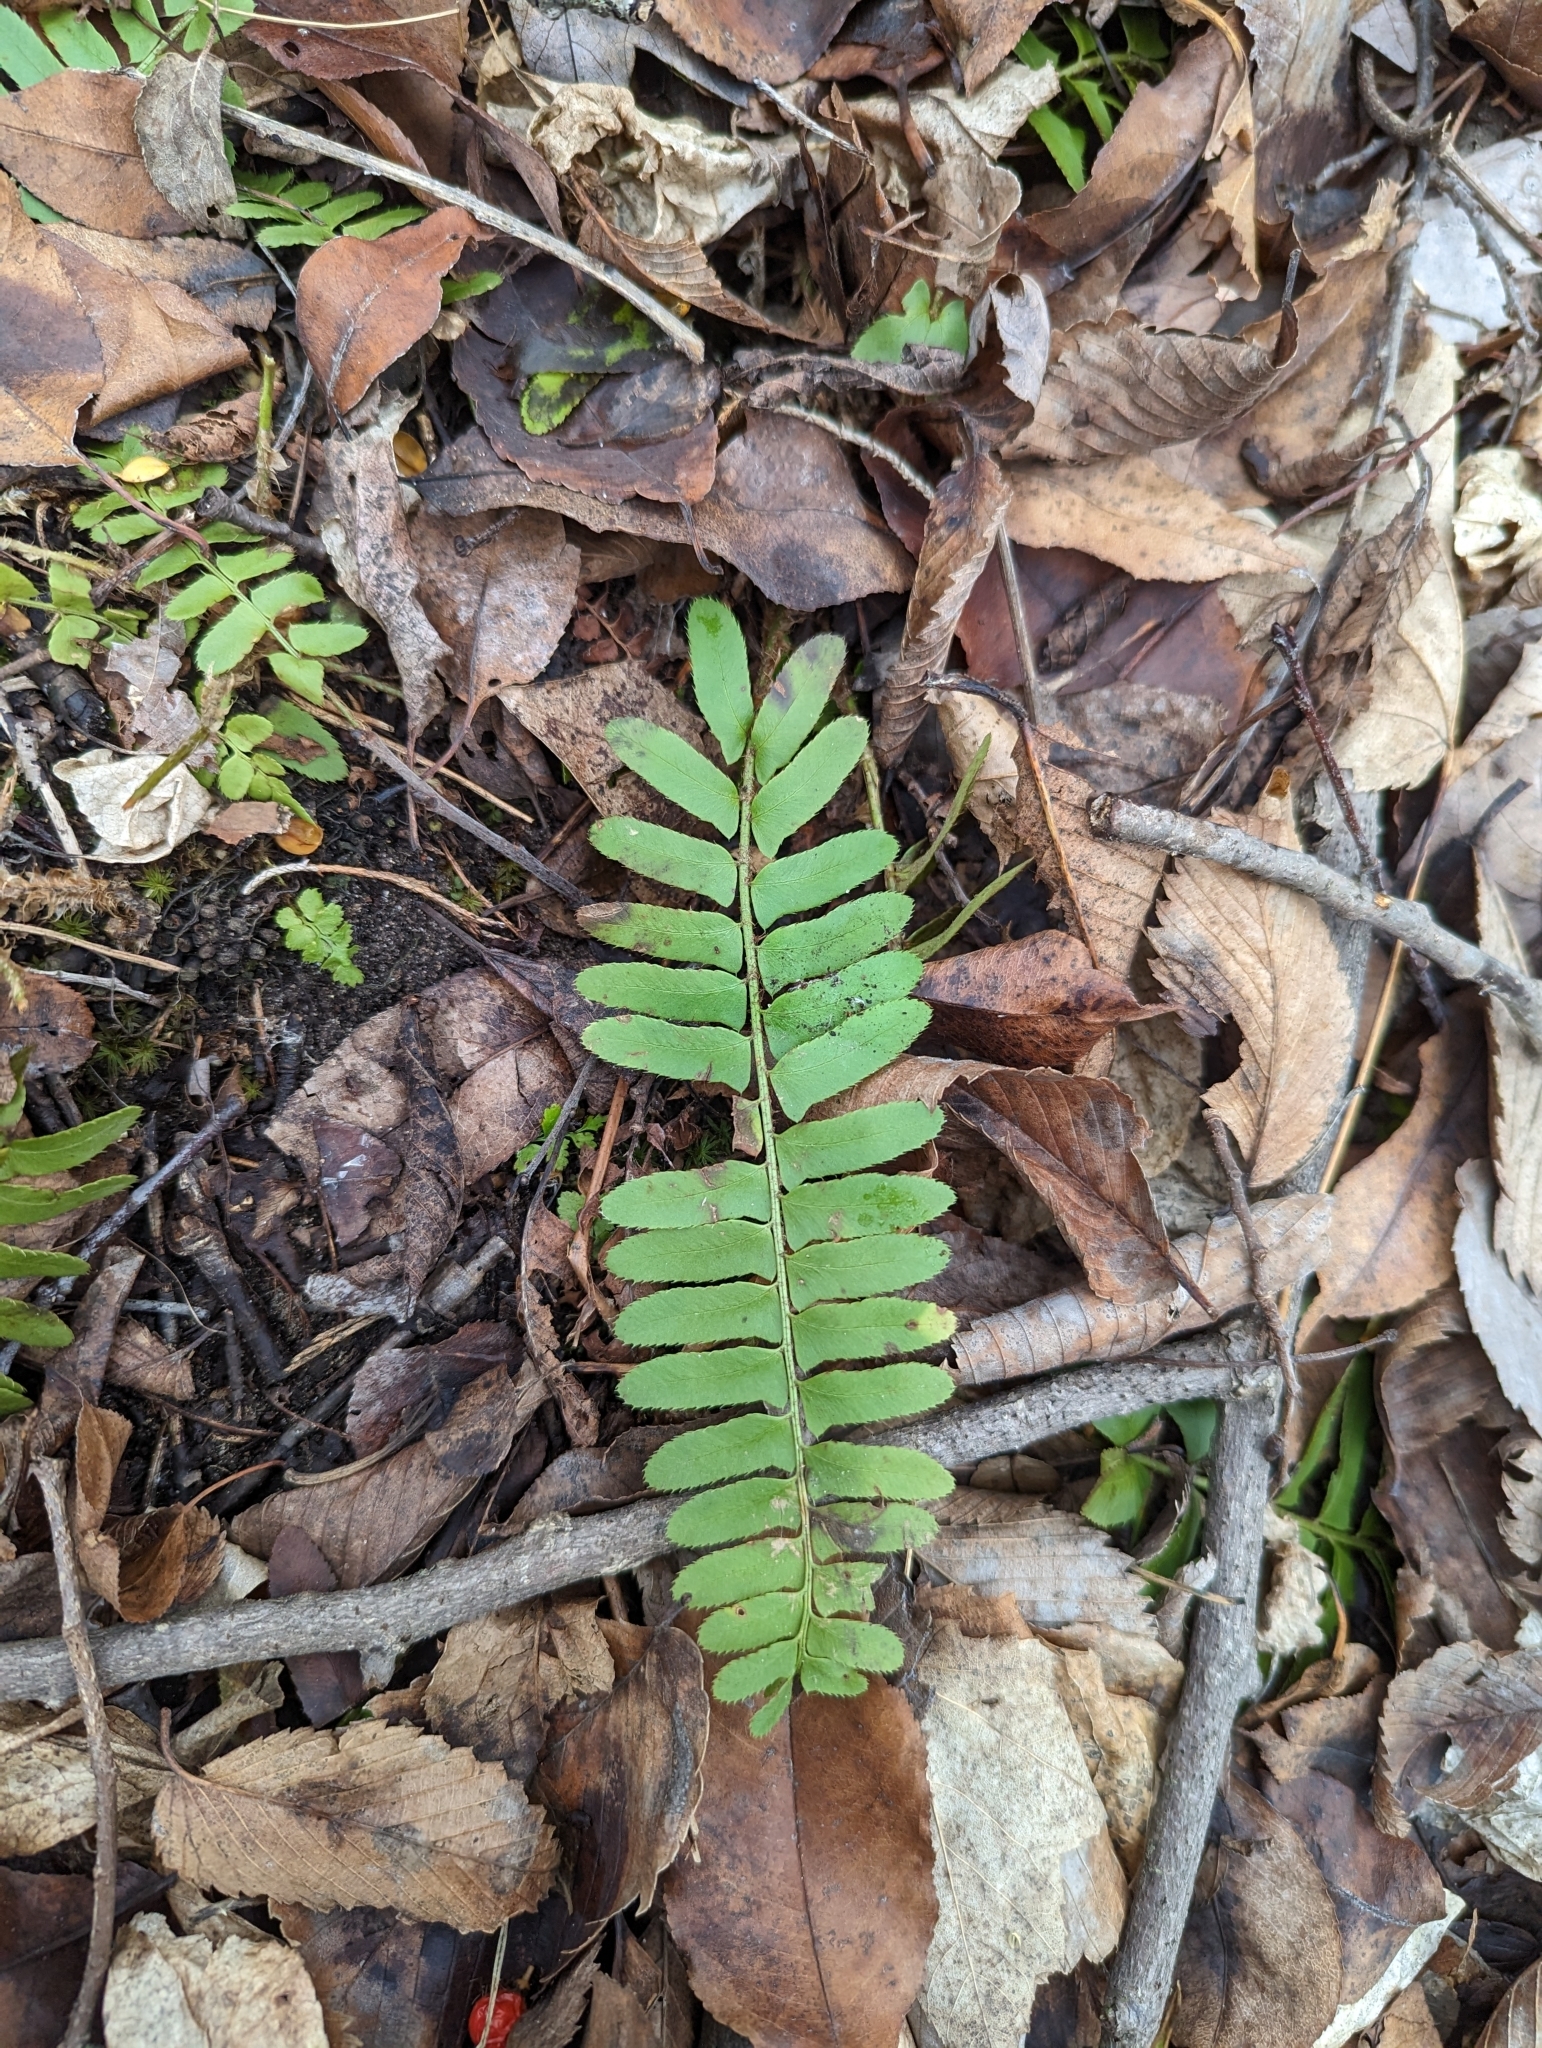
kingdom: Plantae
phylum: Tracheophyta
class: Polypodiopsida
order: Polypodiales
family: Dryopteridaceae
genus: Polystichum
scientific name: Polystichum acrostichoides
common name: Christmas fern
